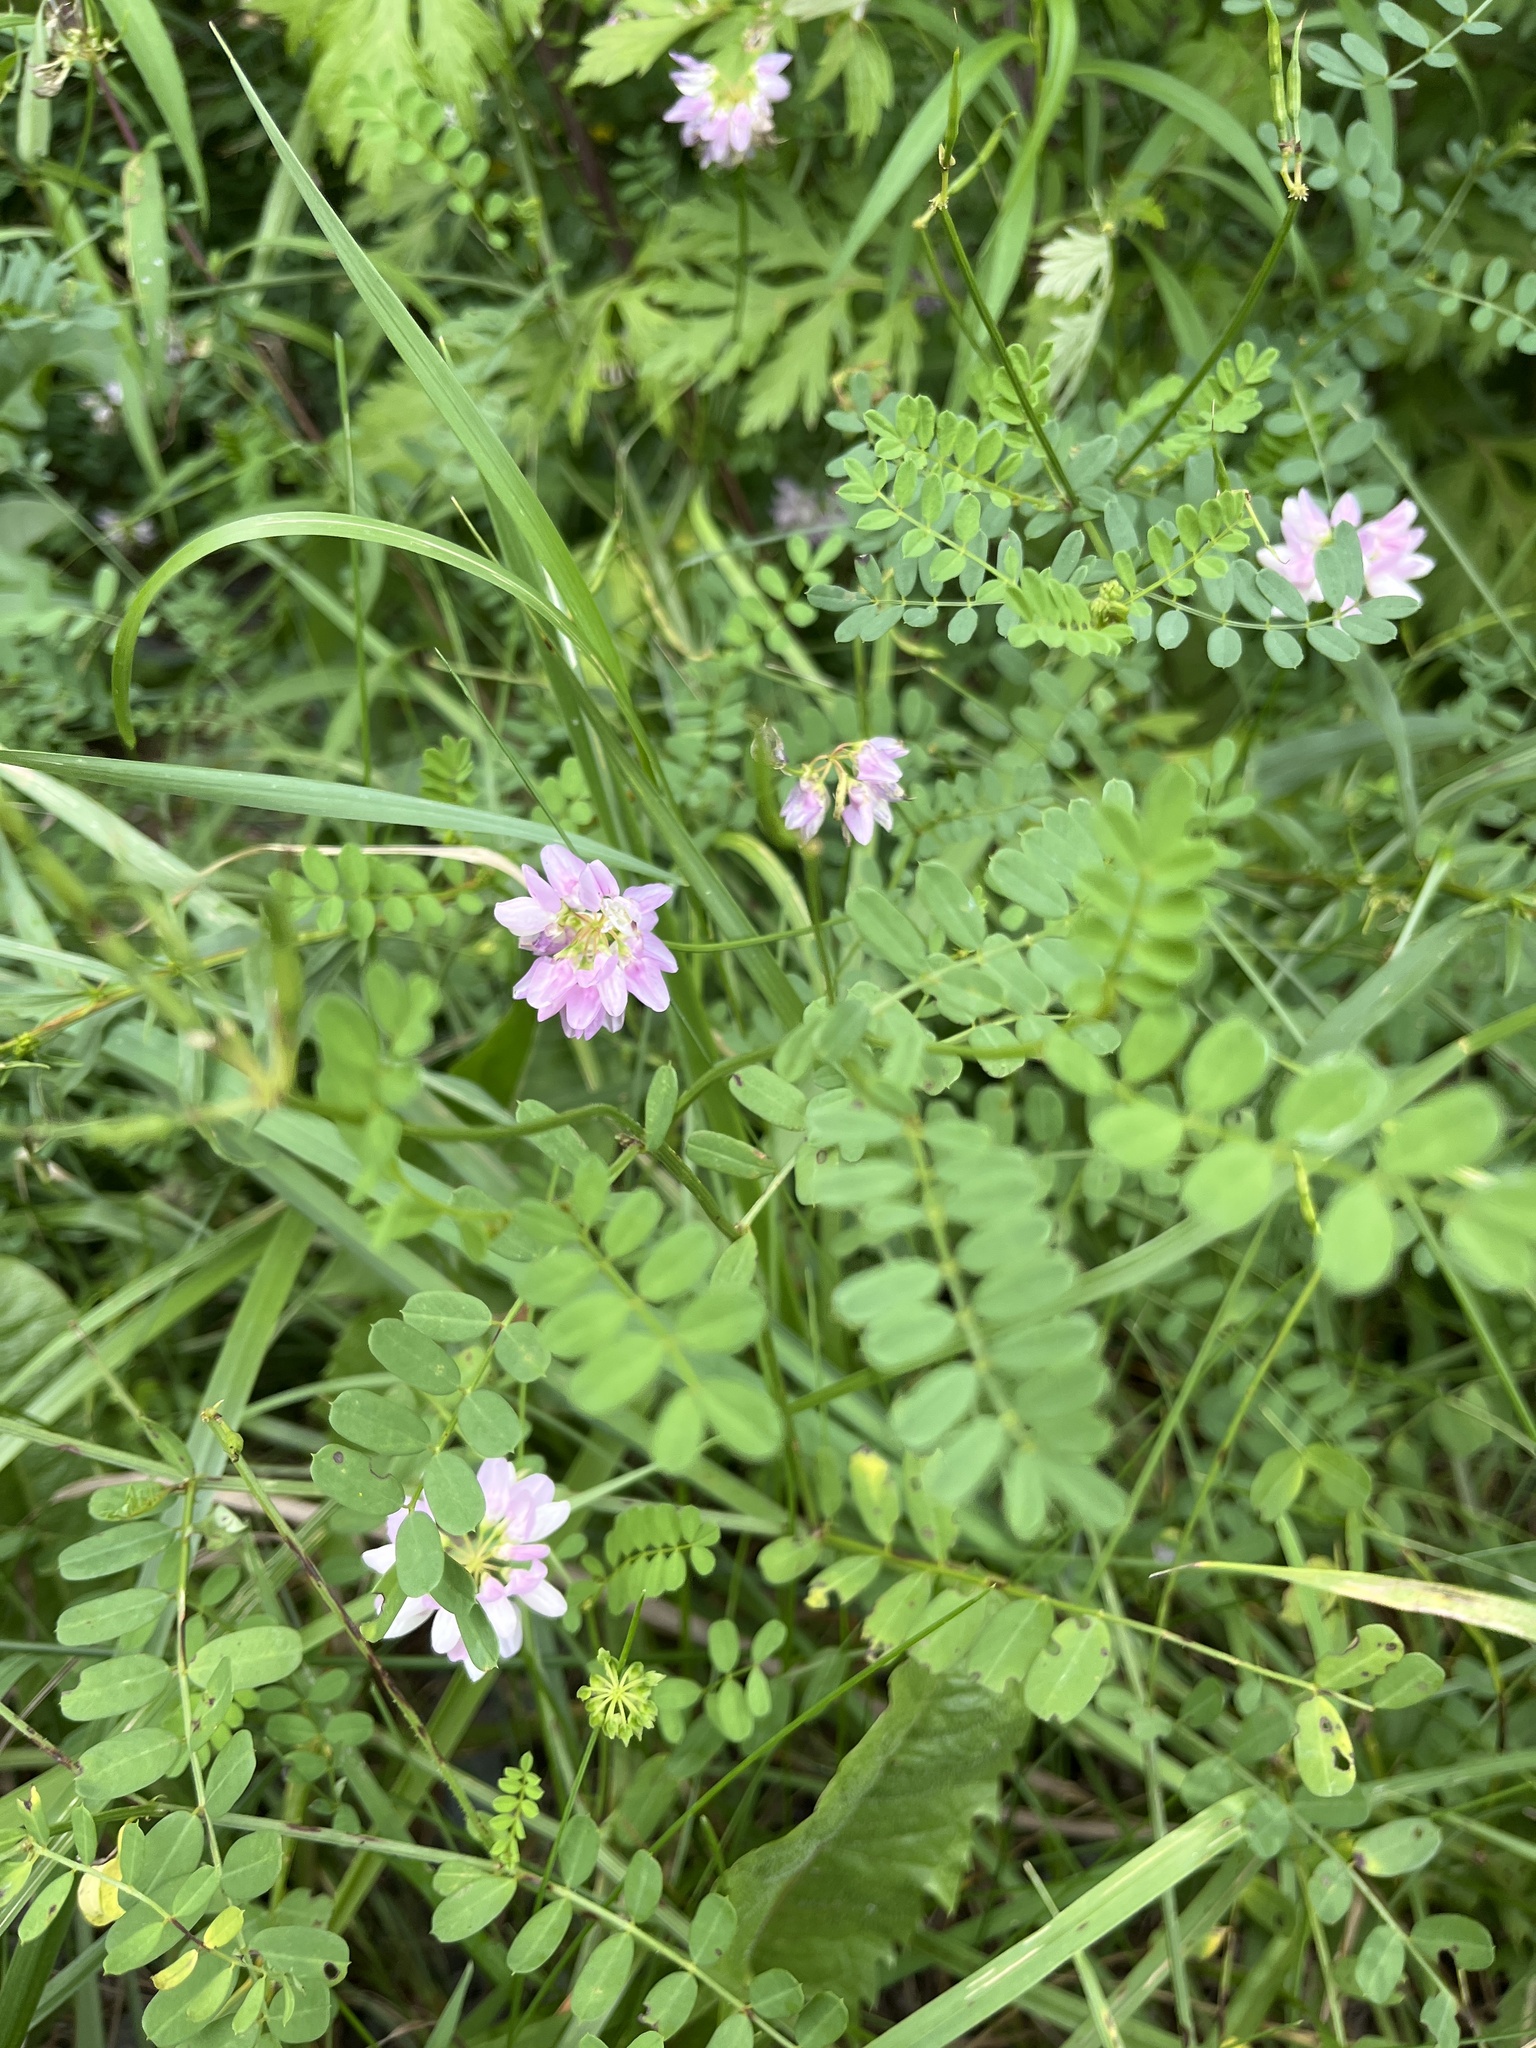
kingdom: Plantae
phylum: Tracheophyta
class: Magnoliopsida
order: Fabales
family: Fabaceae
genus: Coronilla
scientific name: Coronilla varia
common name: Crownvetch
